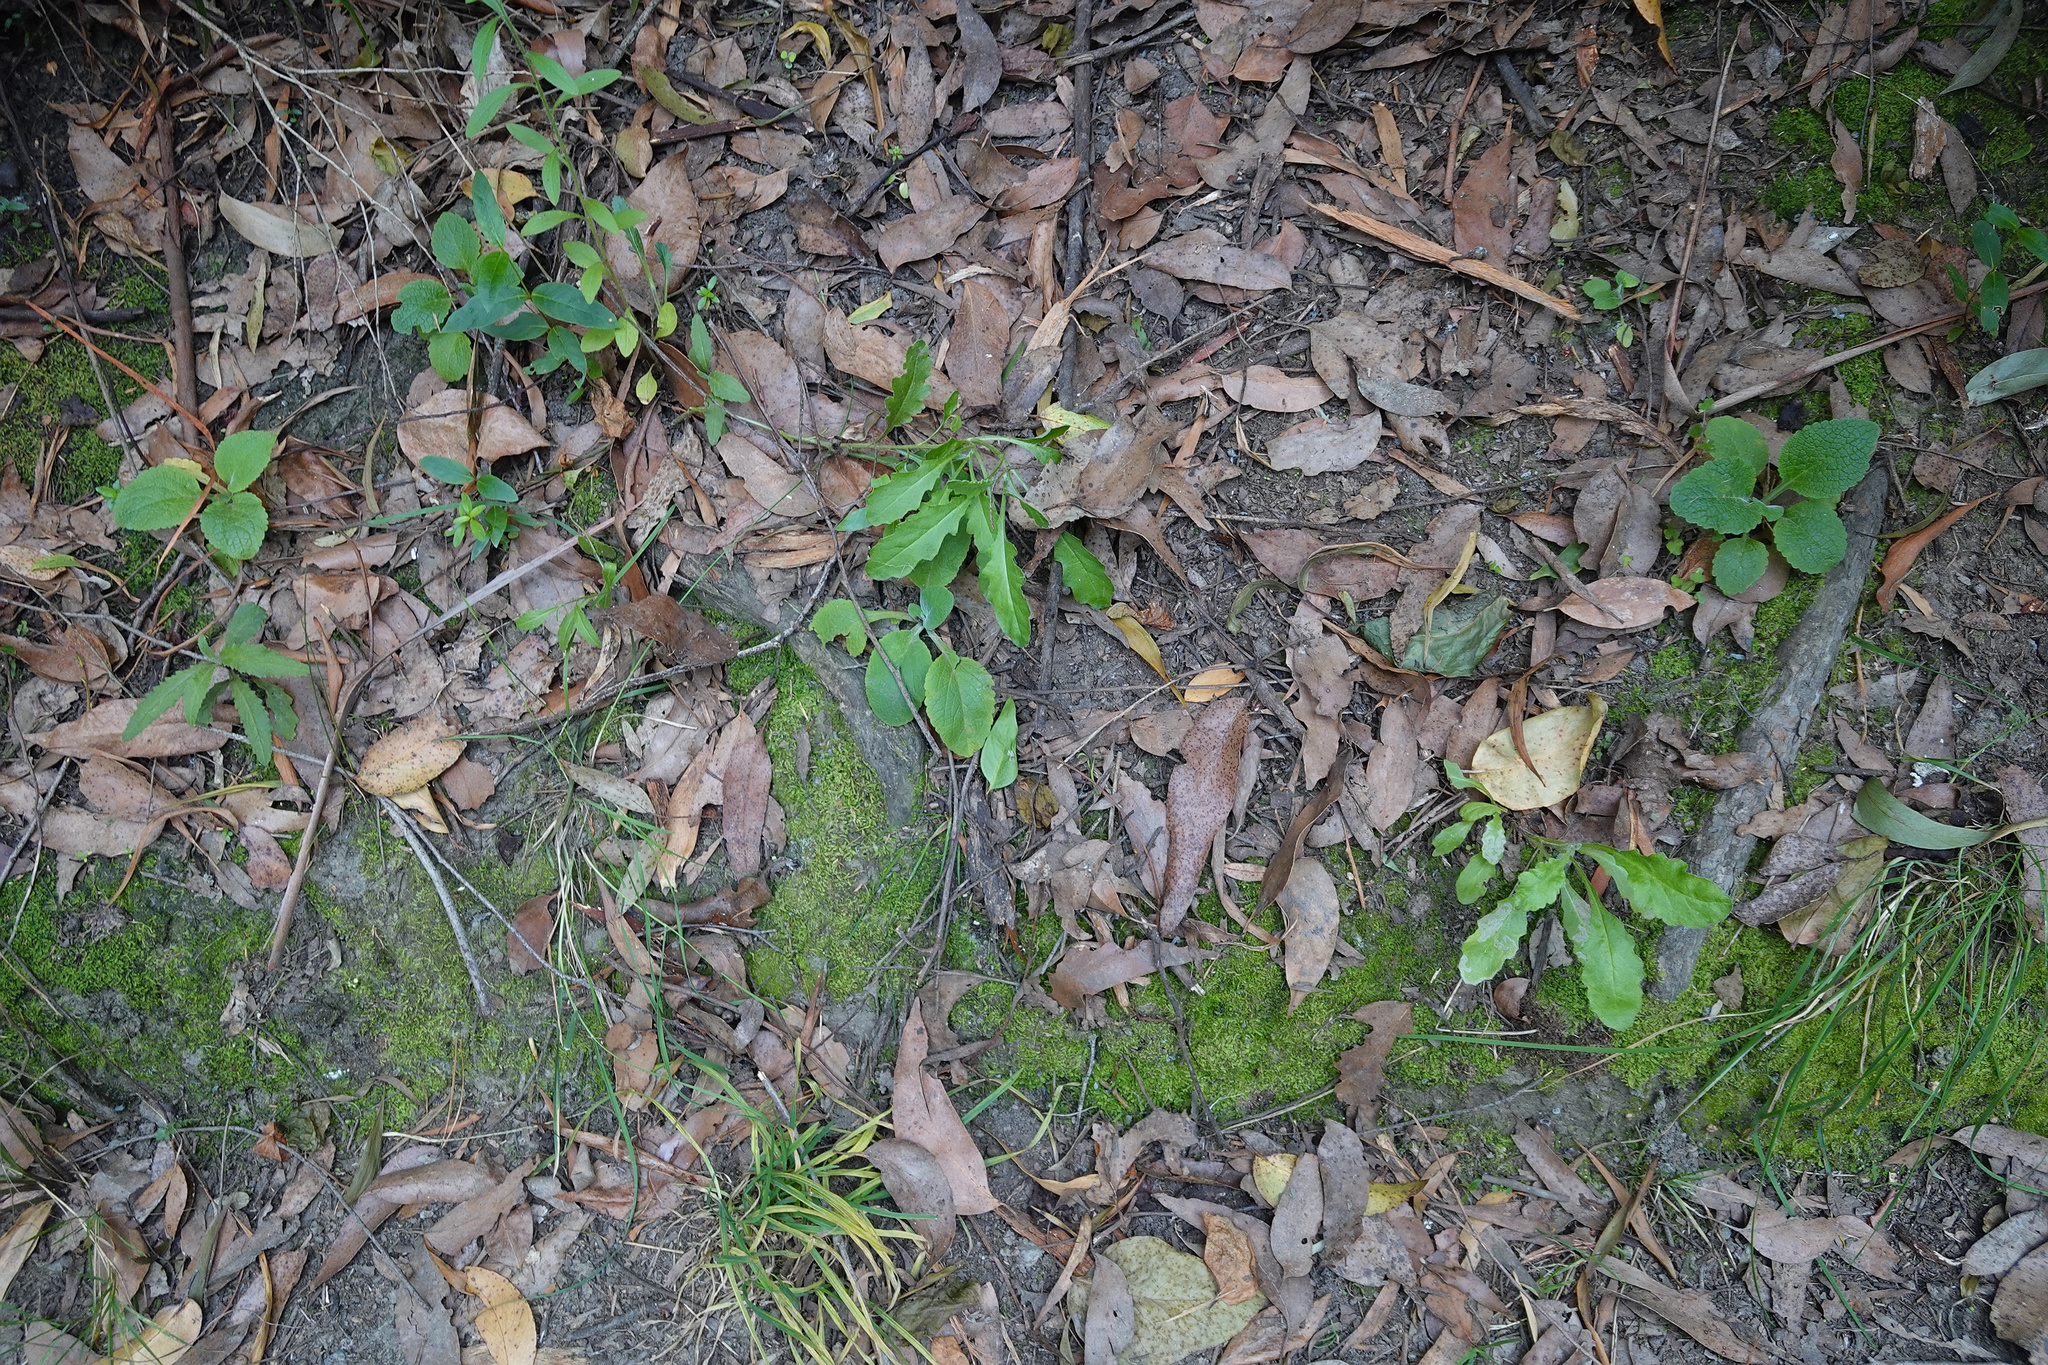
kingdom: Plantae
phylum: Tracheophyta
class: Magnoliopsida
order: Asterales
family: Asteraceae
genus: Senecio
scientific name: Senecio glomeratus
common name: Cutleaf burnweed
